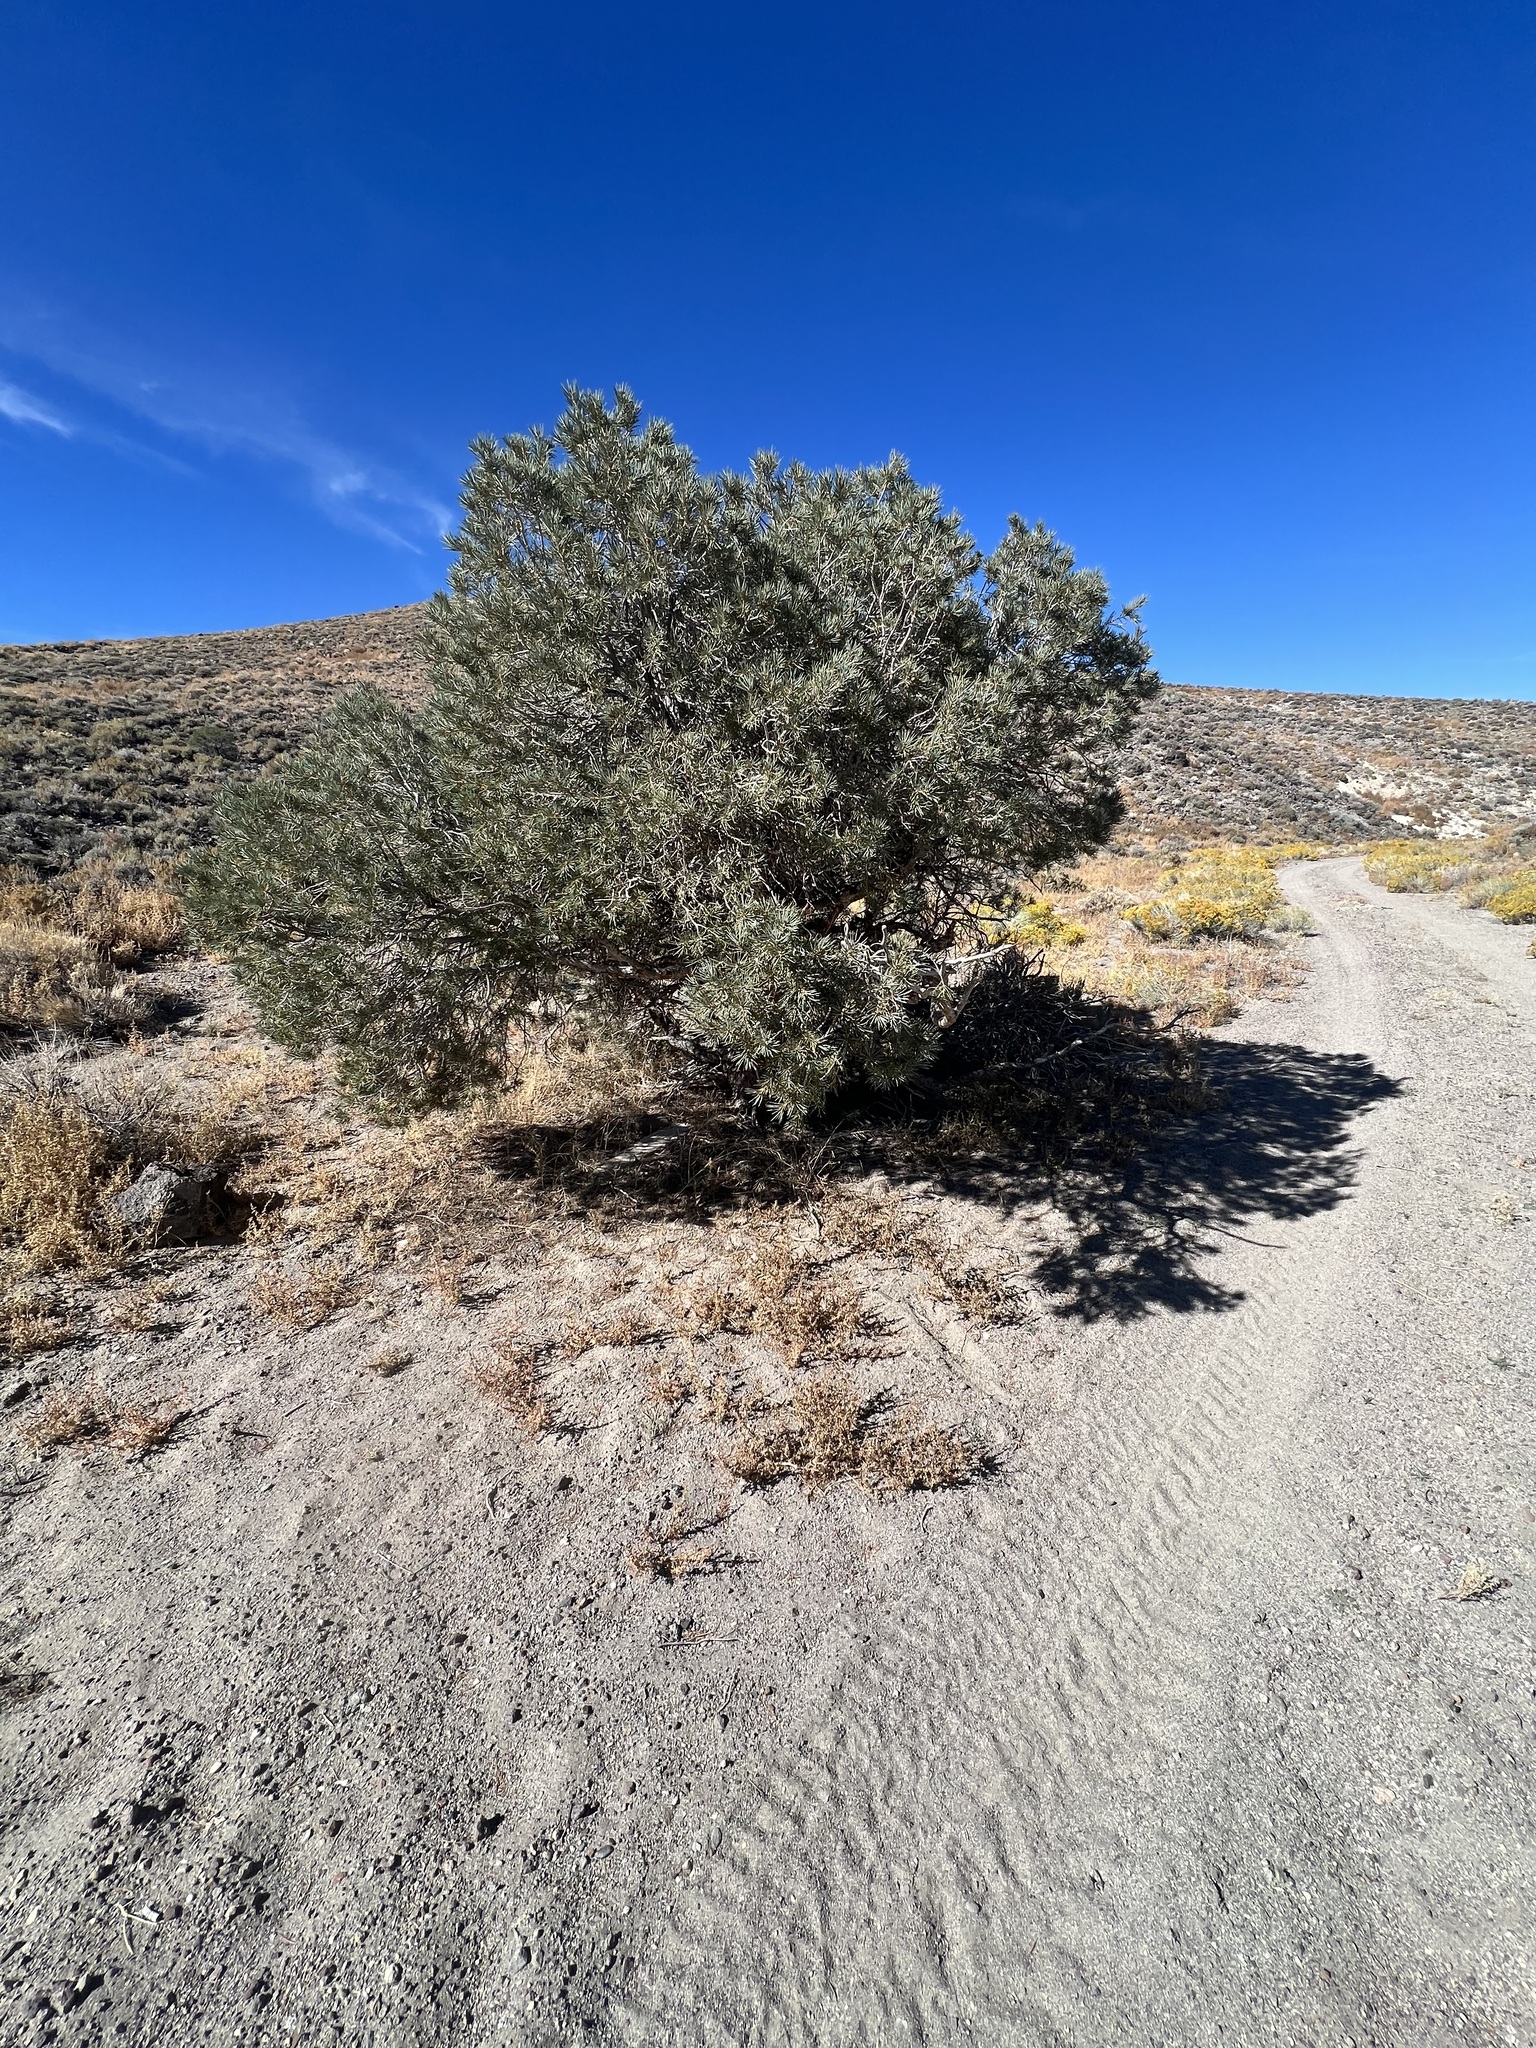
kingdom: Plantae
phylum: Tracheophyta
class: Pinopsida
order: Pinales
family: Pinaceae
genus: Pinus
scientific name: Pinus monophylla
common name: One-leaved nut pine
